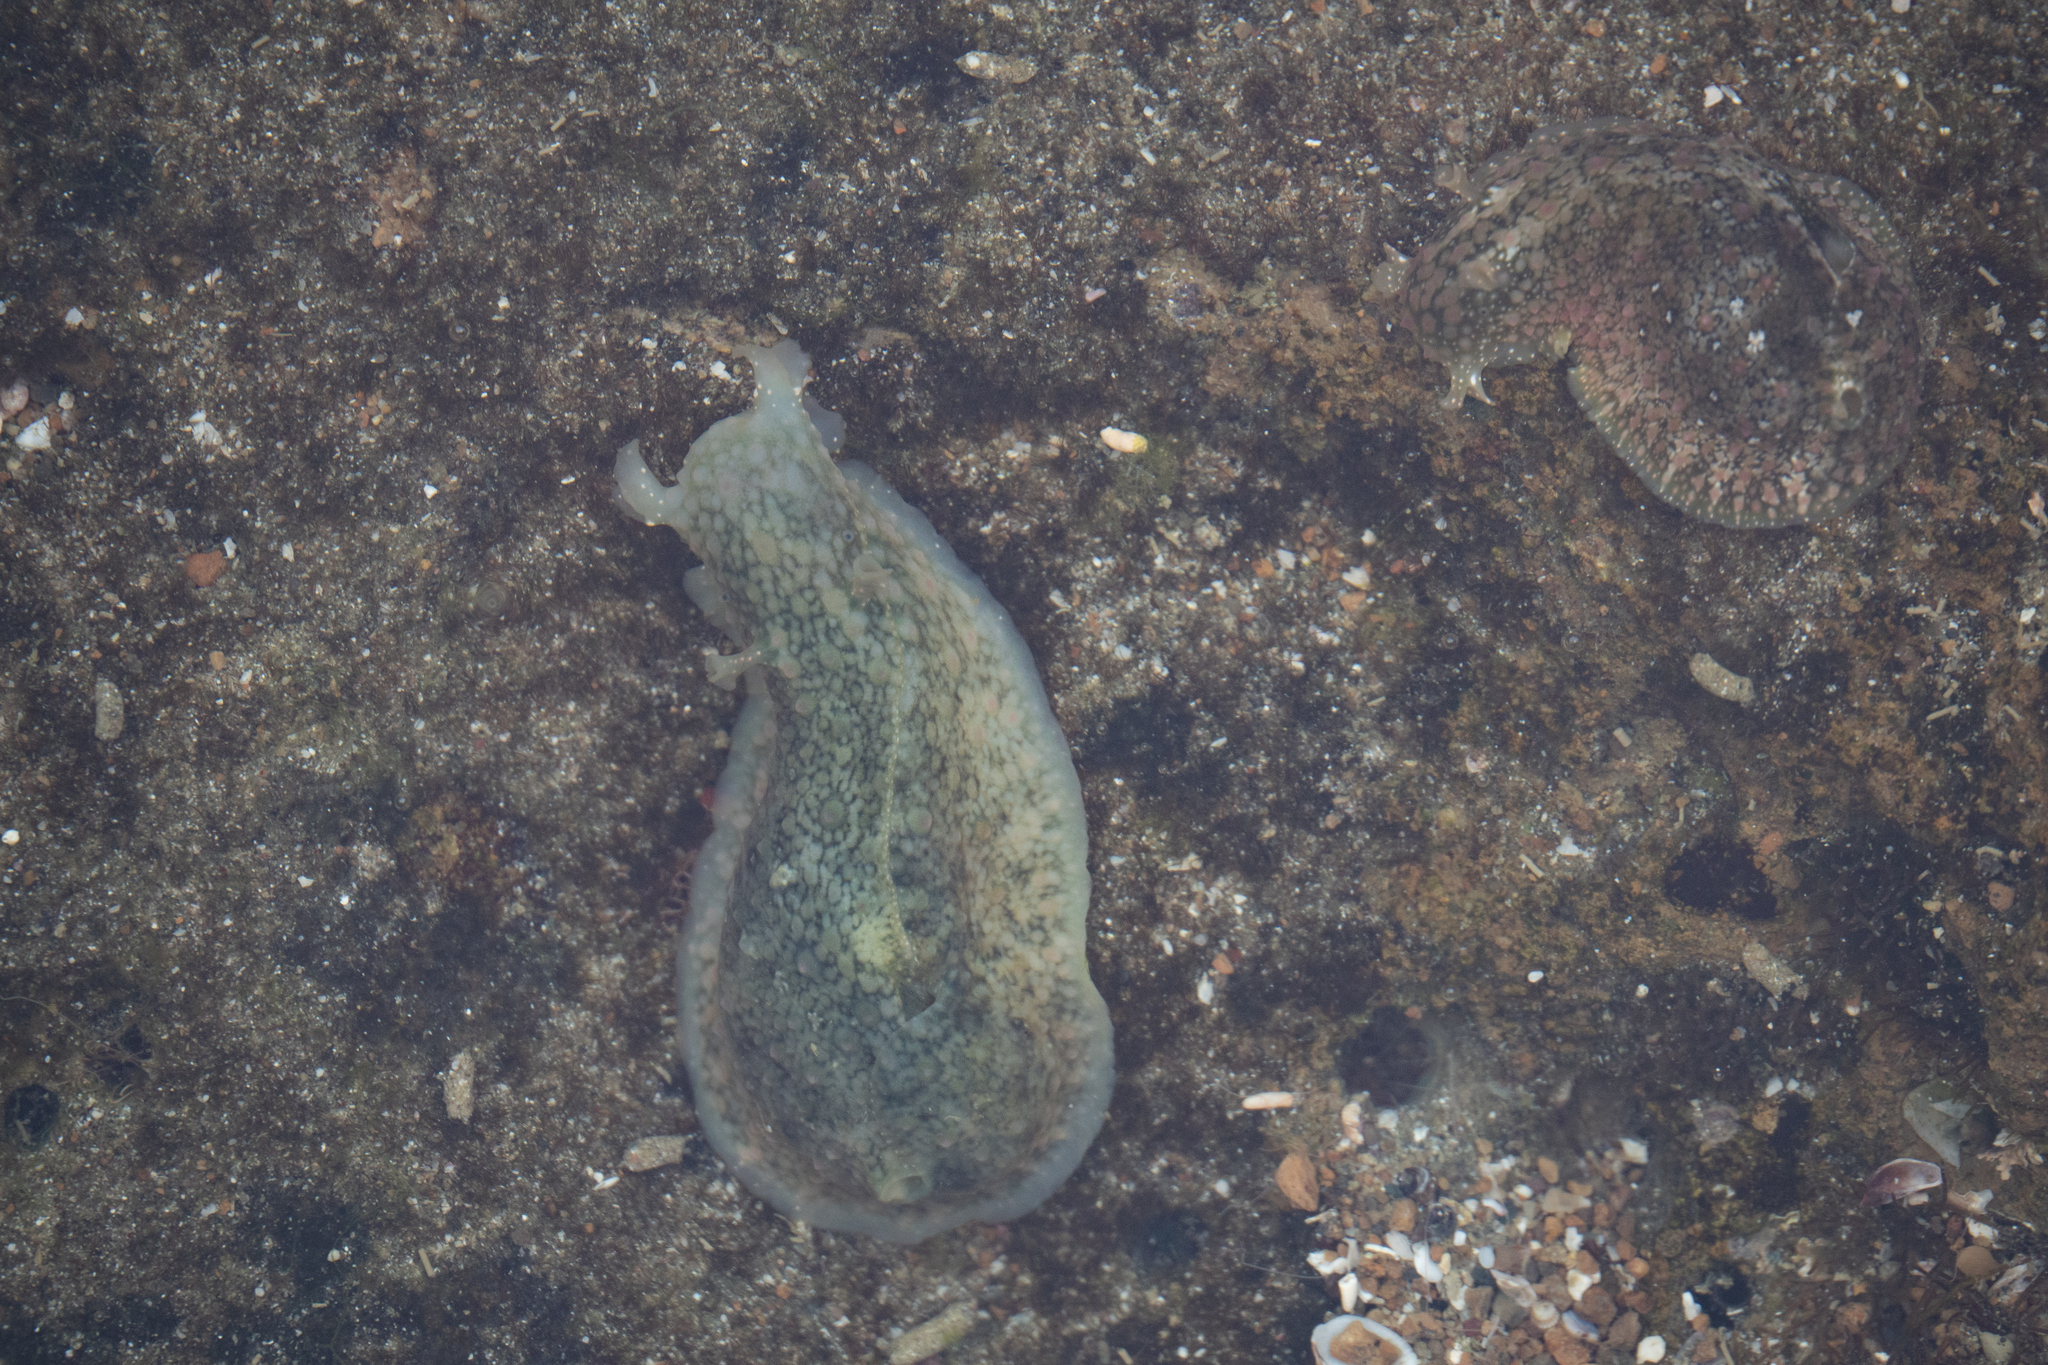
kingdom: Animalia
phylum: Mollusca
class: Gastropoda
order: Aplysiida
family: Aplysiidae
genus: Dolabrifera
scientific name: Dolabrifera nicaraguana
